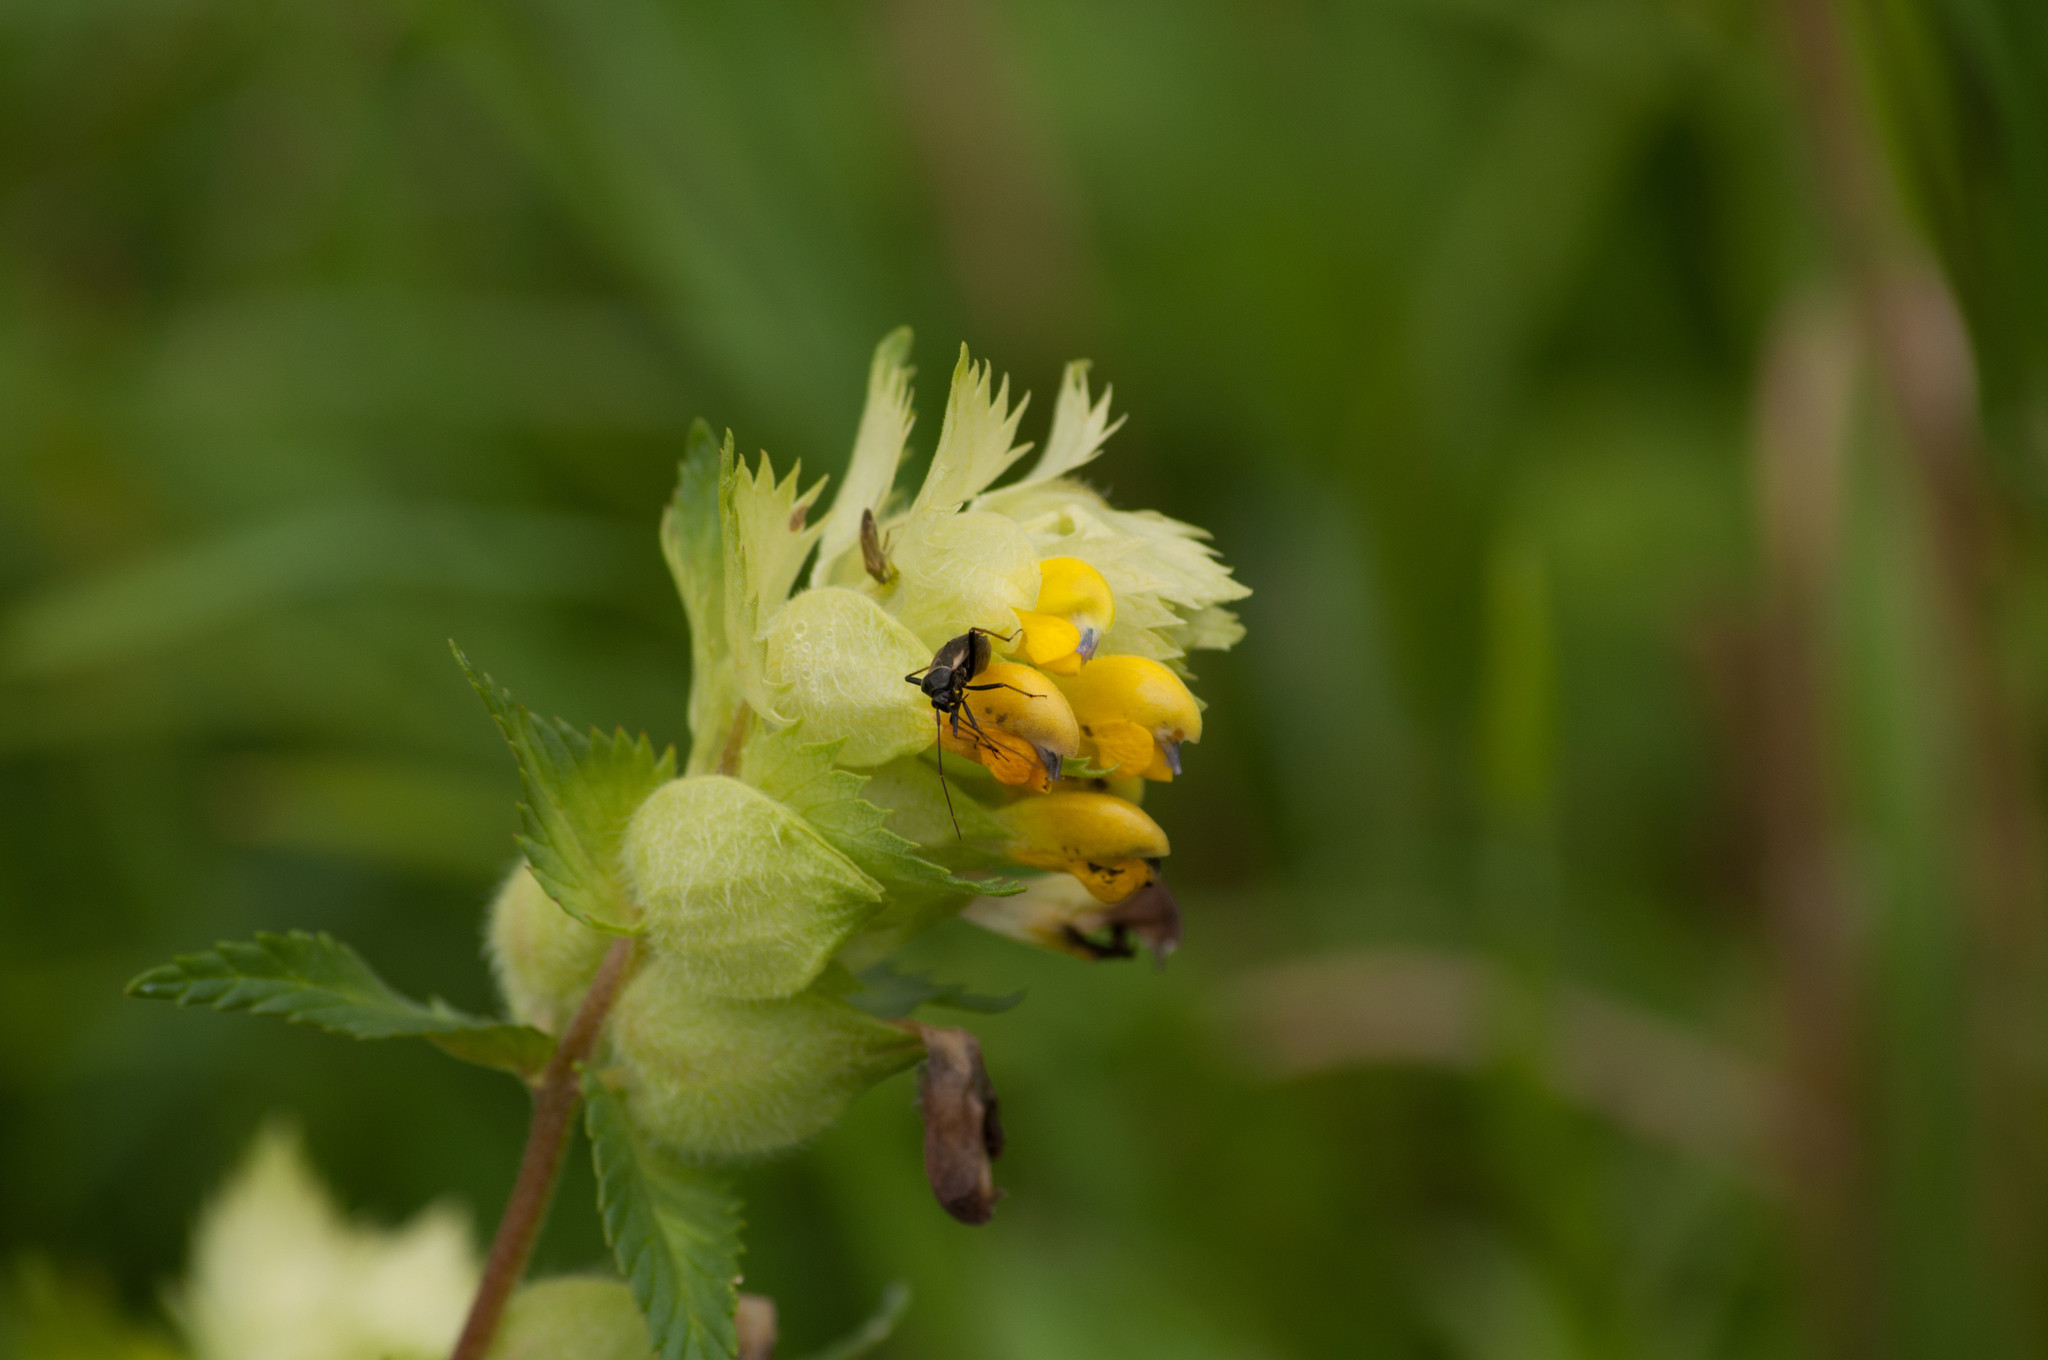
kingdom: Animalia
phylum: Arthropoda
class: Insecta
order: Hemiptera
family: Miridae
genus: Adelphocoris
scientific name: Adelphocoris seticornis
